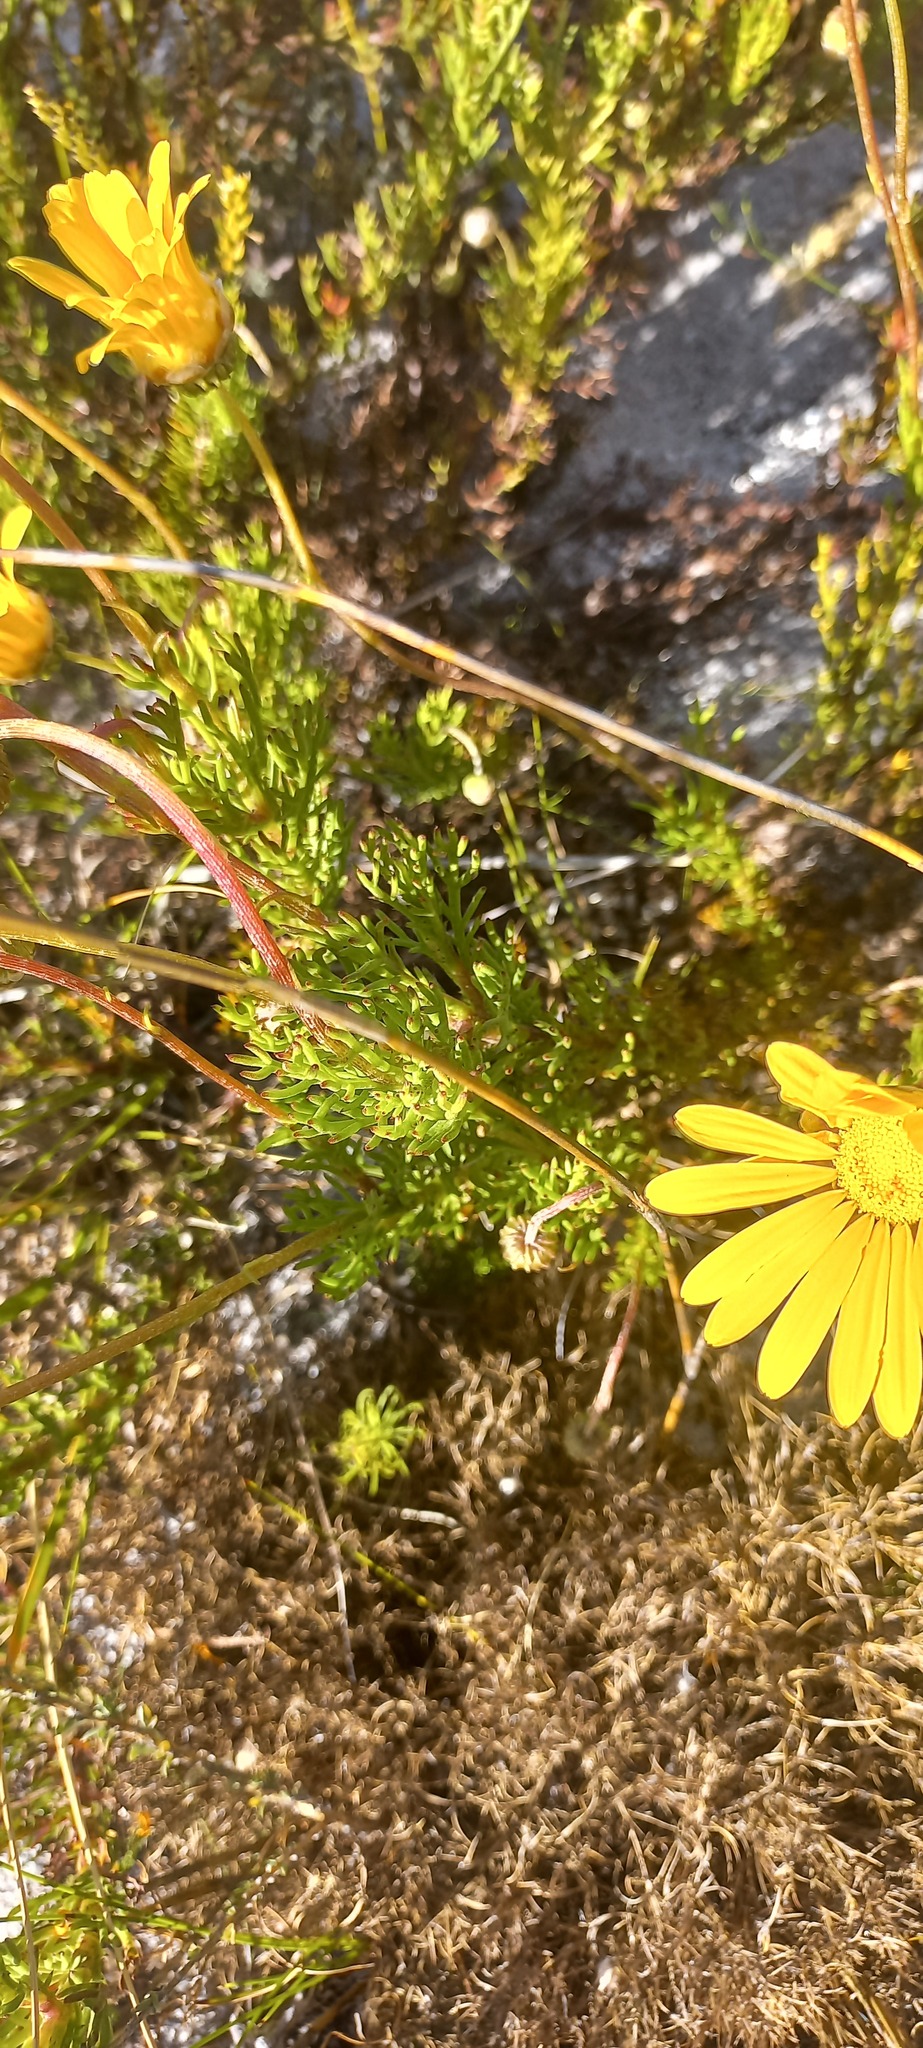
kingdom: Plantae
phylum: Tracheophyta
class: Magnoliopsida
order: Asterales
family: Asteraceae
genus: Ursinia
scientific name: Ursinia paleacea
